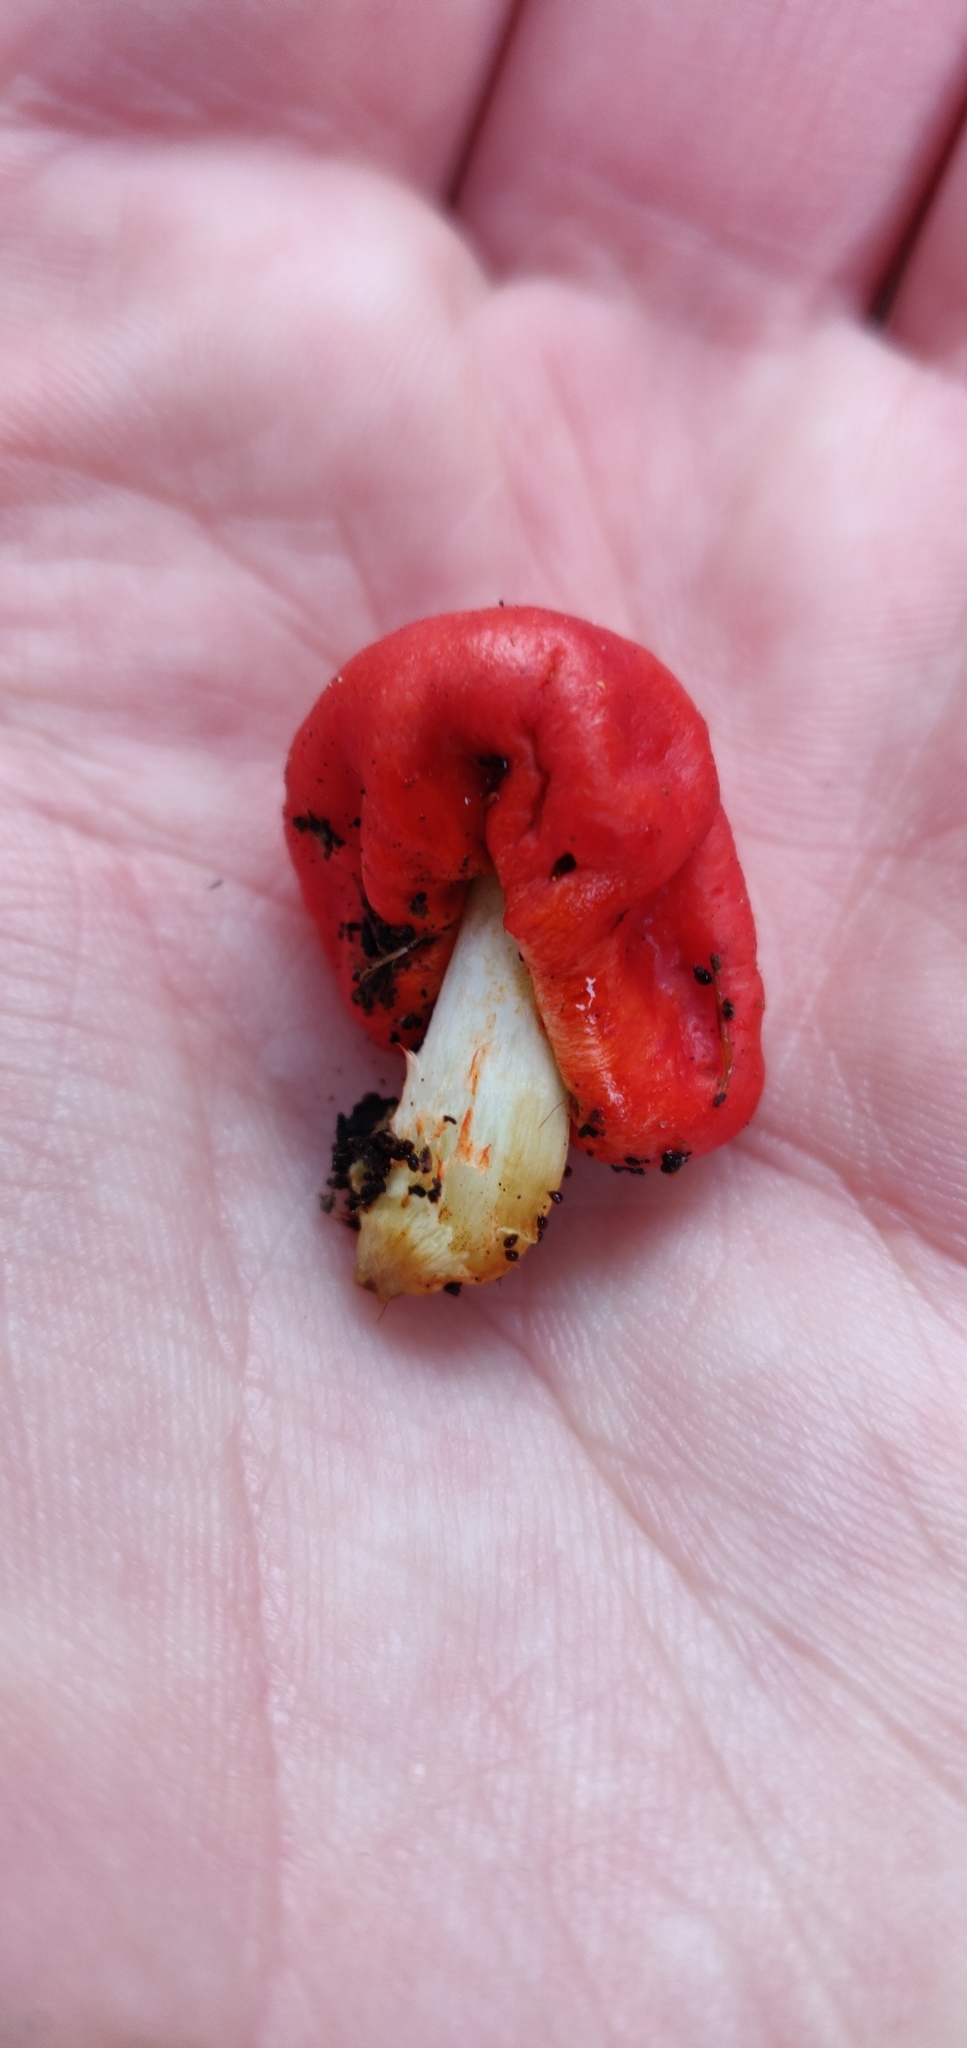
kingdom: Fungi
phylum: Basidiomycota
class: Agaricomycetes
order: Agaricales
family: Strophariaceae
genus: Leratiomyces
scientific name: Leratiomyces erythrocephalus
